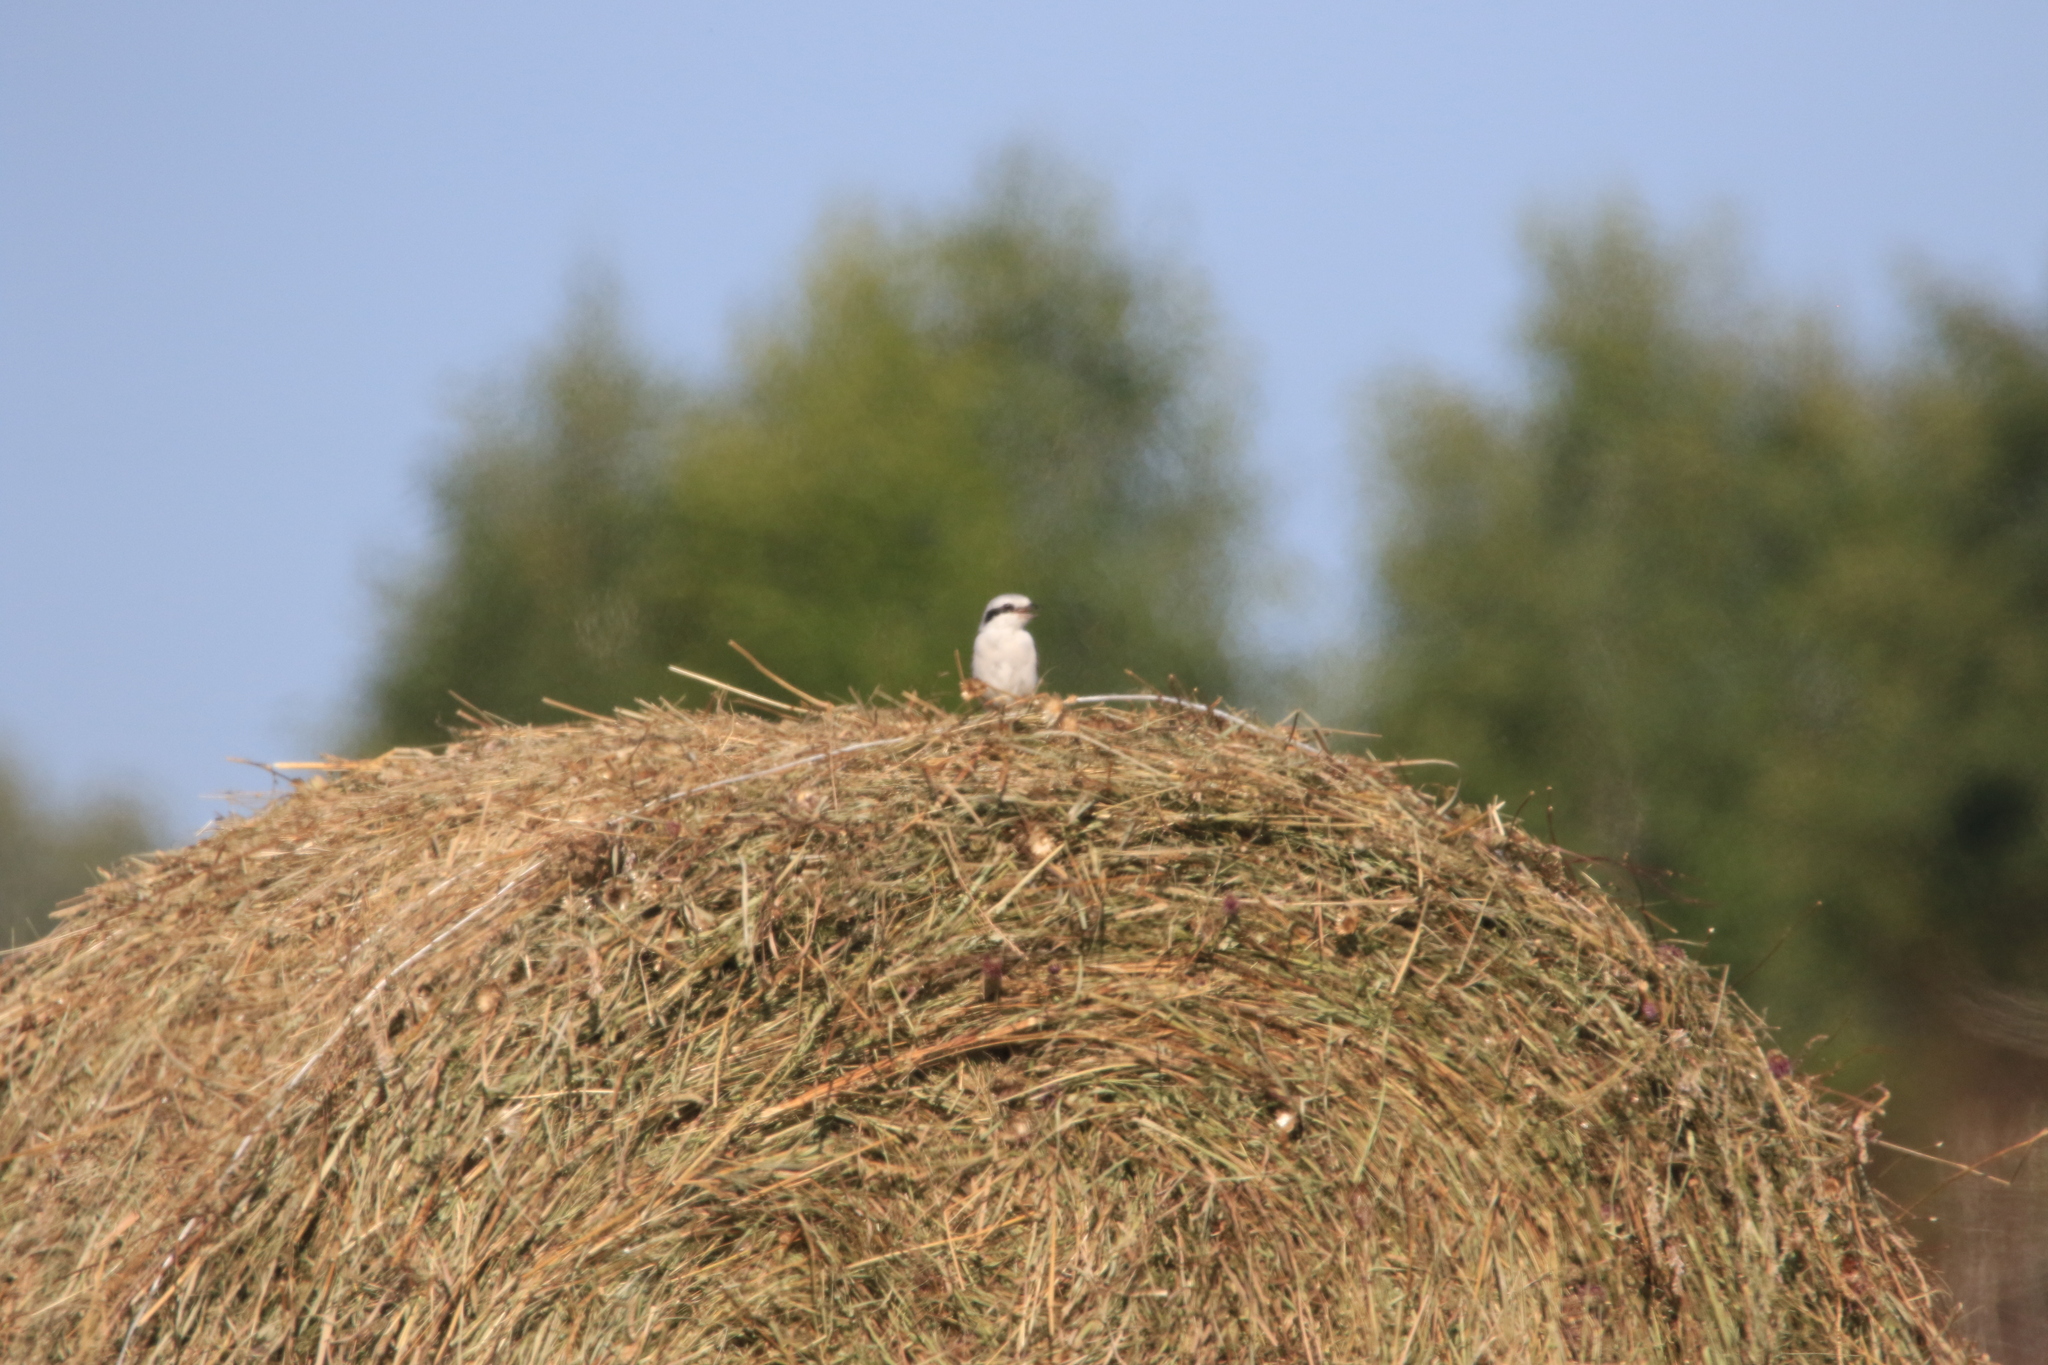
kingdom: Animalia
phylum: Chordata
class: Aves
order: Passeriformes
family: Laniidae
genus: Lanius
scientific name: Lanius excubitor
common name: Great grey shrike
